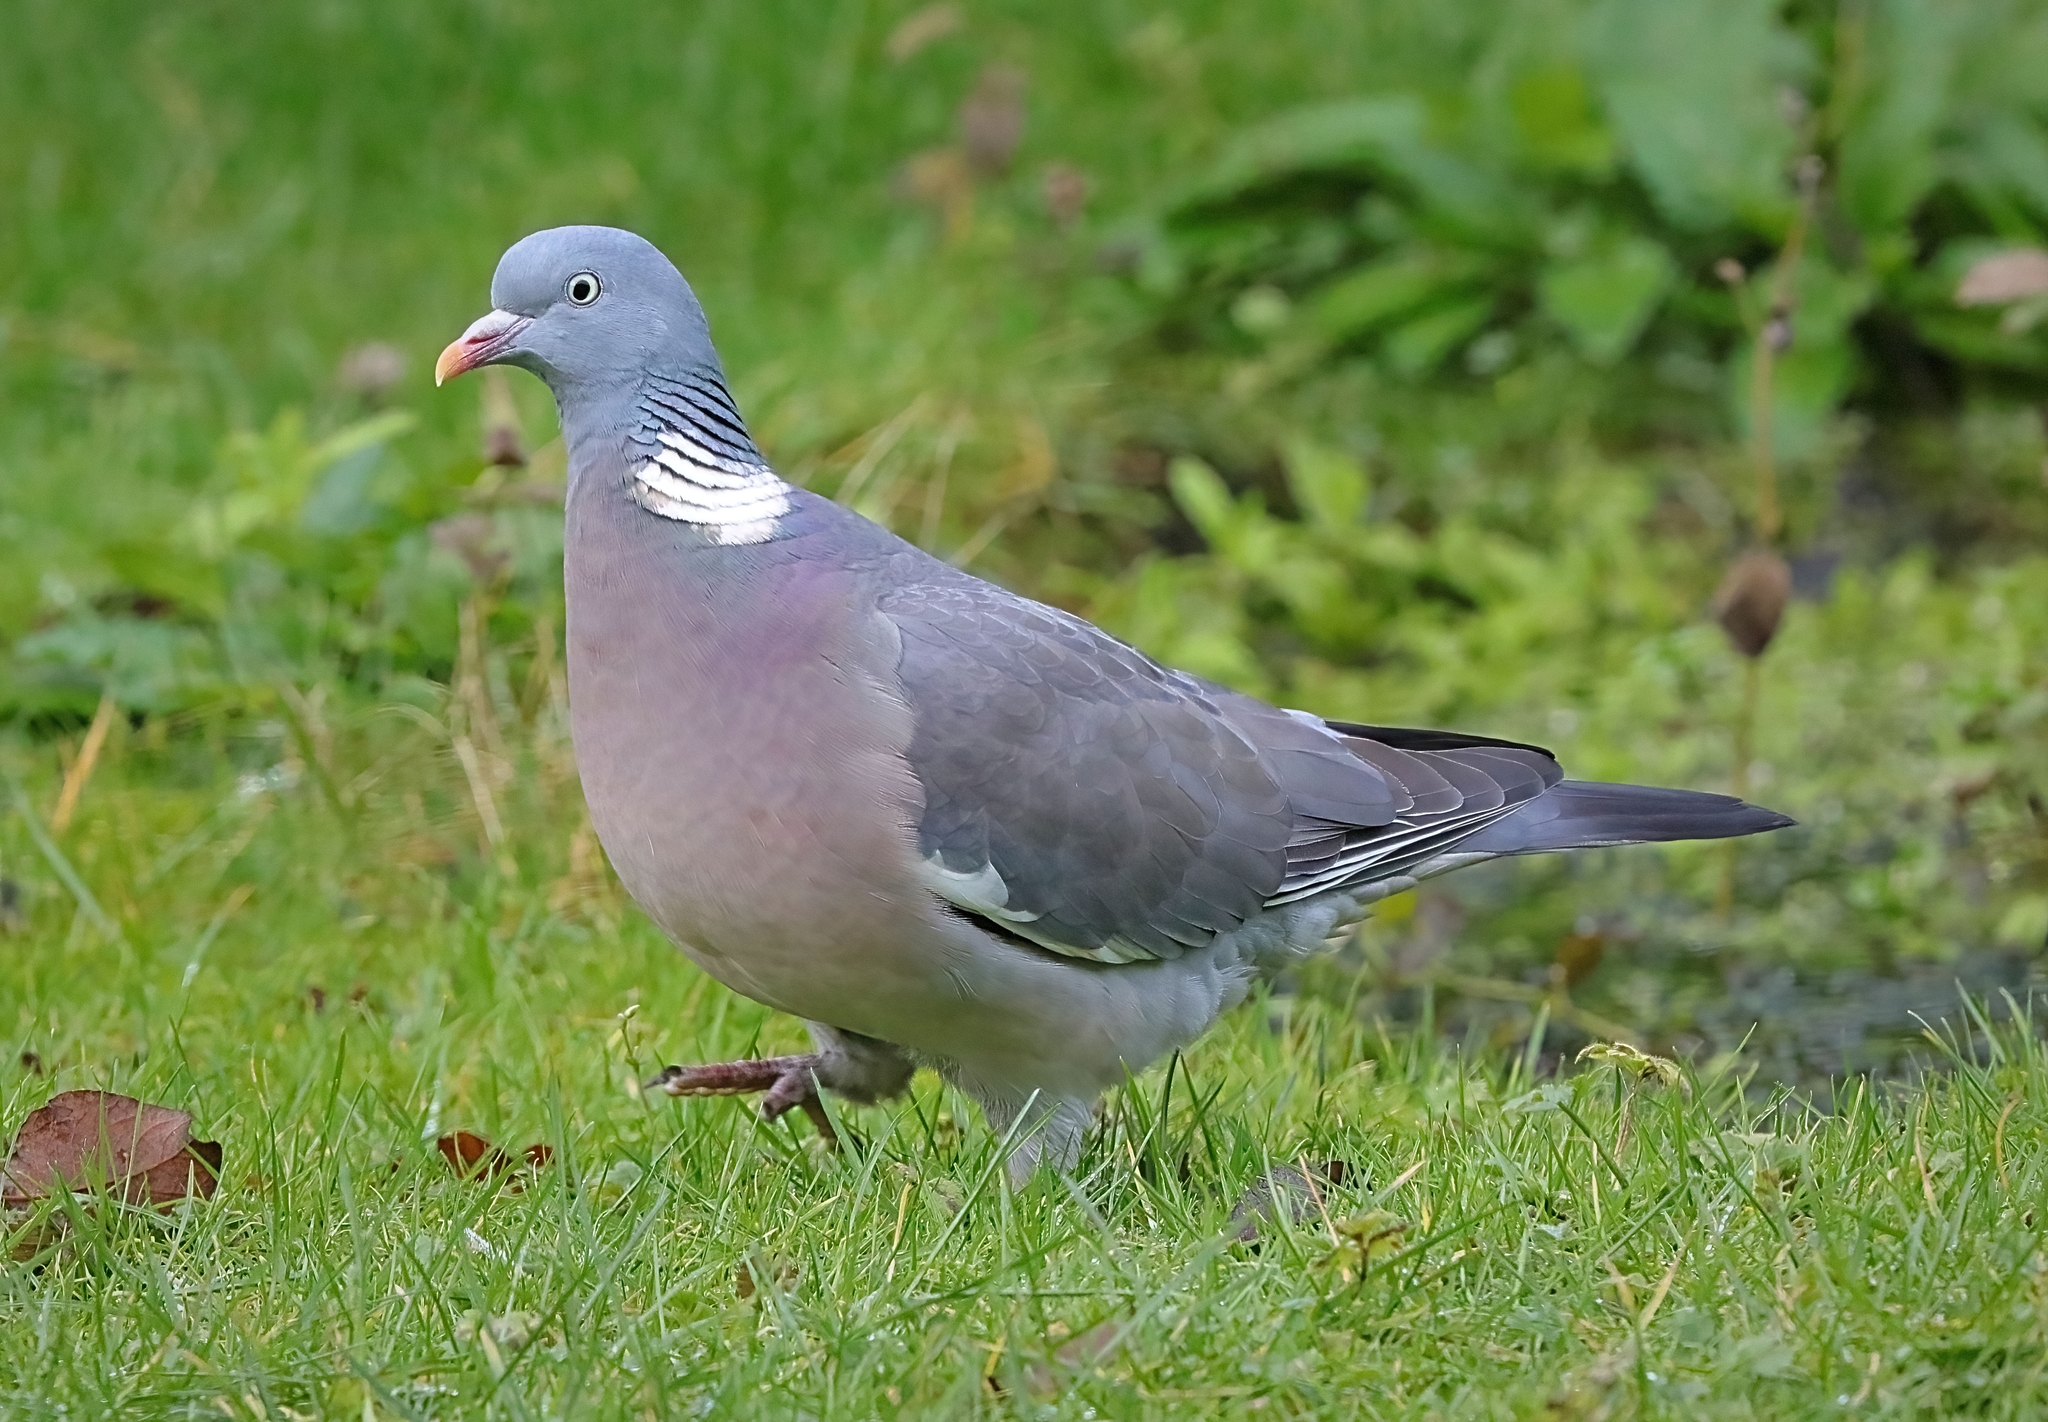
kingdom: Animalia
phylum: Chordata
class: Aves
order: Columbiformes
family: Columbidae
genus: Columba
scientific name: Columba palumbus
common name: Common wood pigeon
